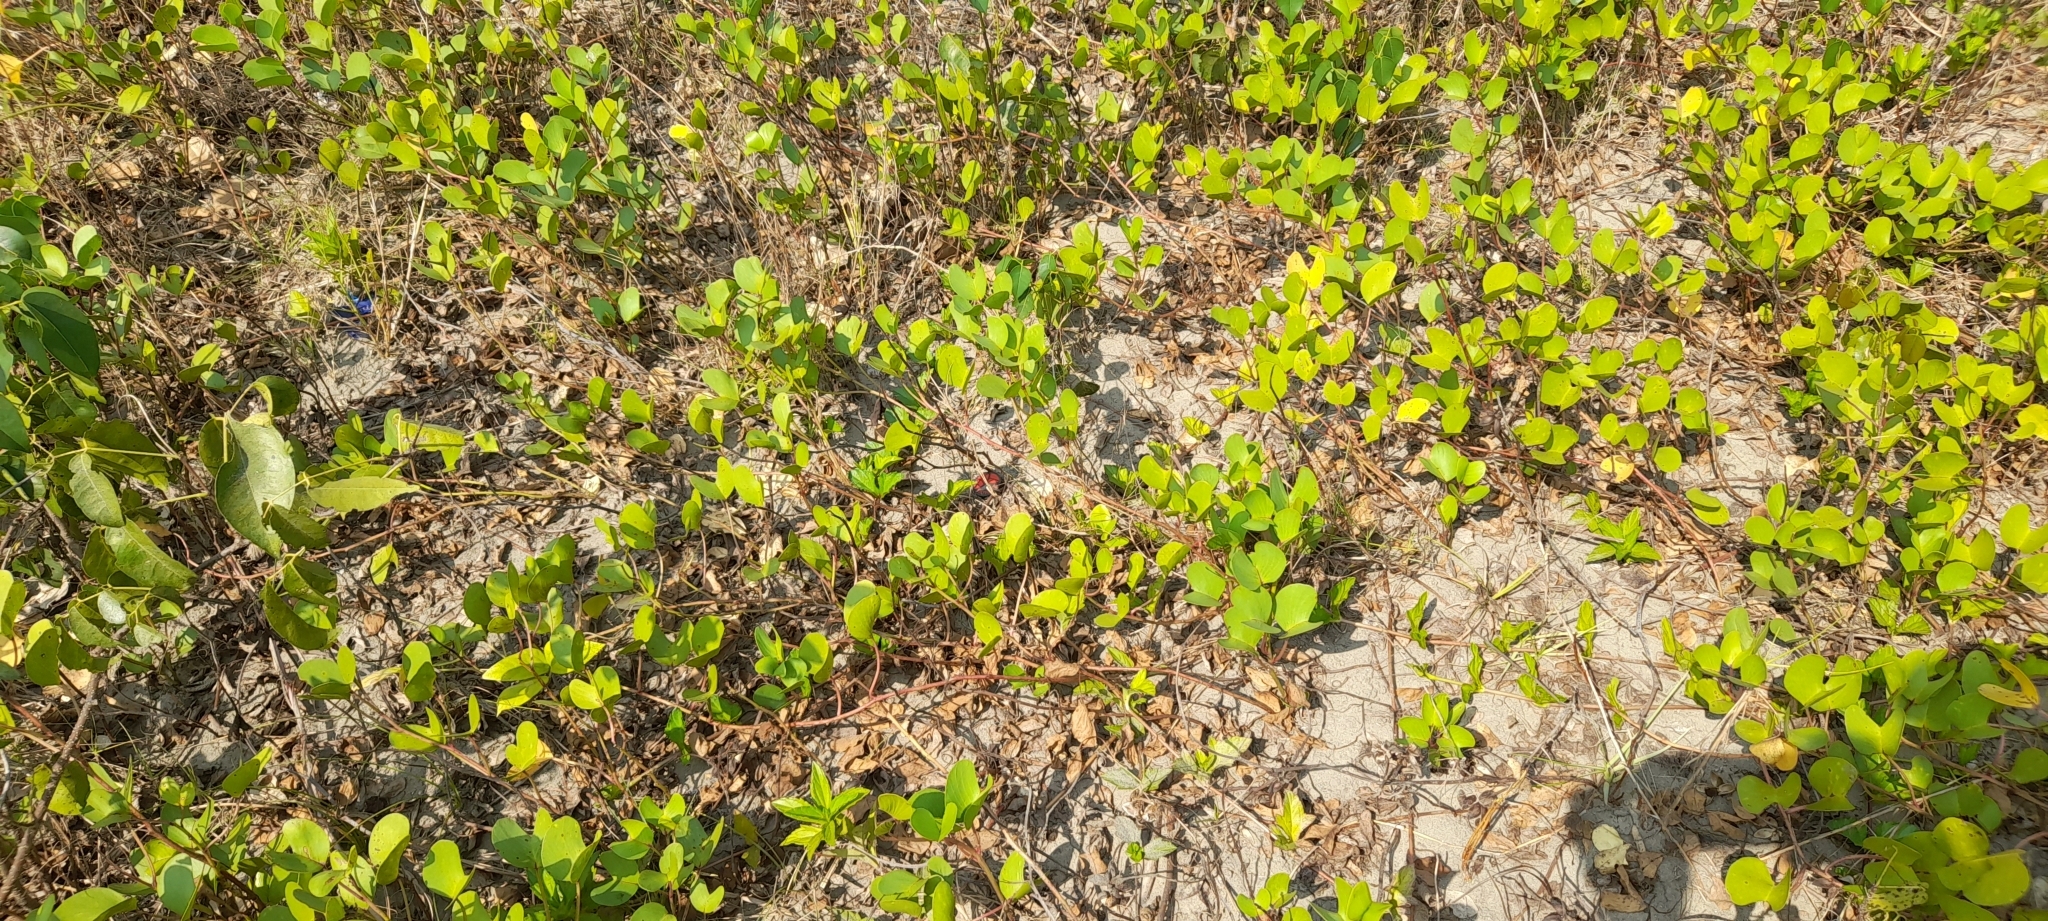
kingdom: Plantae
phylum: Tracheophyta
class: Magnoliopsida
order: Solanales
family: Convolvulaceae
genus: Ipomoea
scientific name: Ipomoea pes-caprae
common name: Beach morning glory
